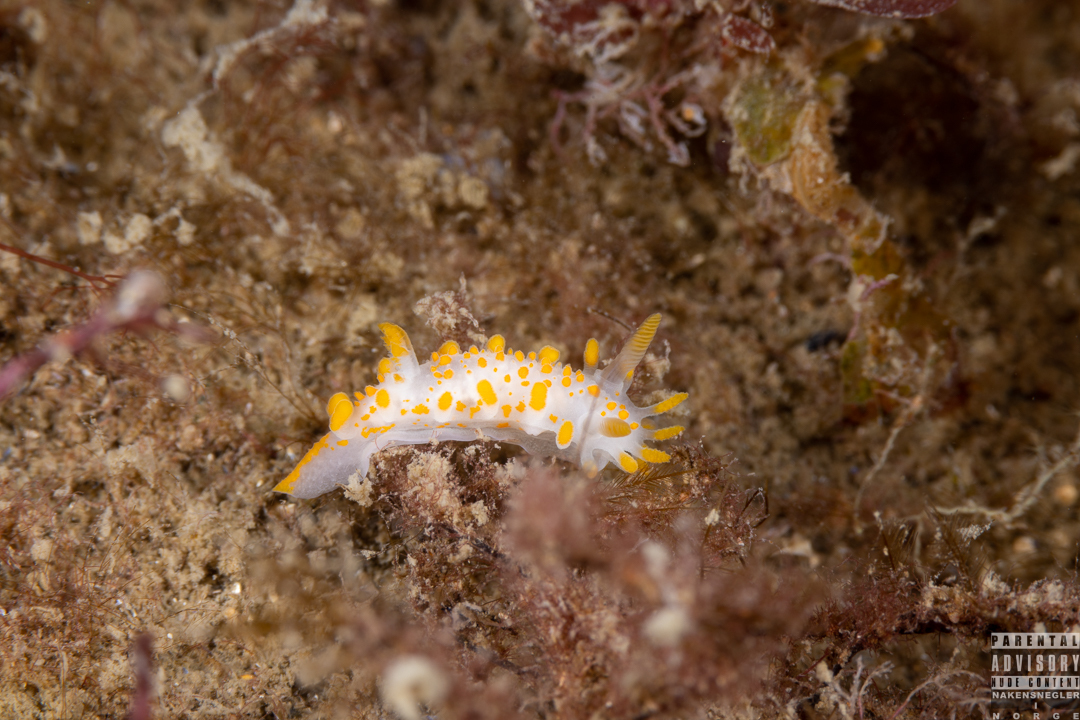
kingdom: Animalia
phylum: Mollusca
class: Gastropoda
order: Nudibranchia
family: Polyceridae
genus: Limacia
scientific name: Limacia clavigera
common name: Orange-clubbed sea slug
